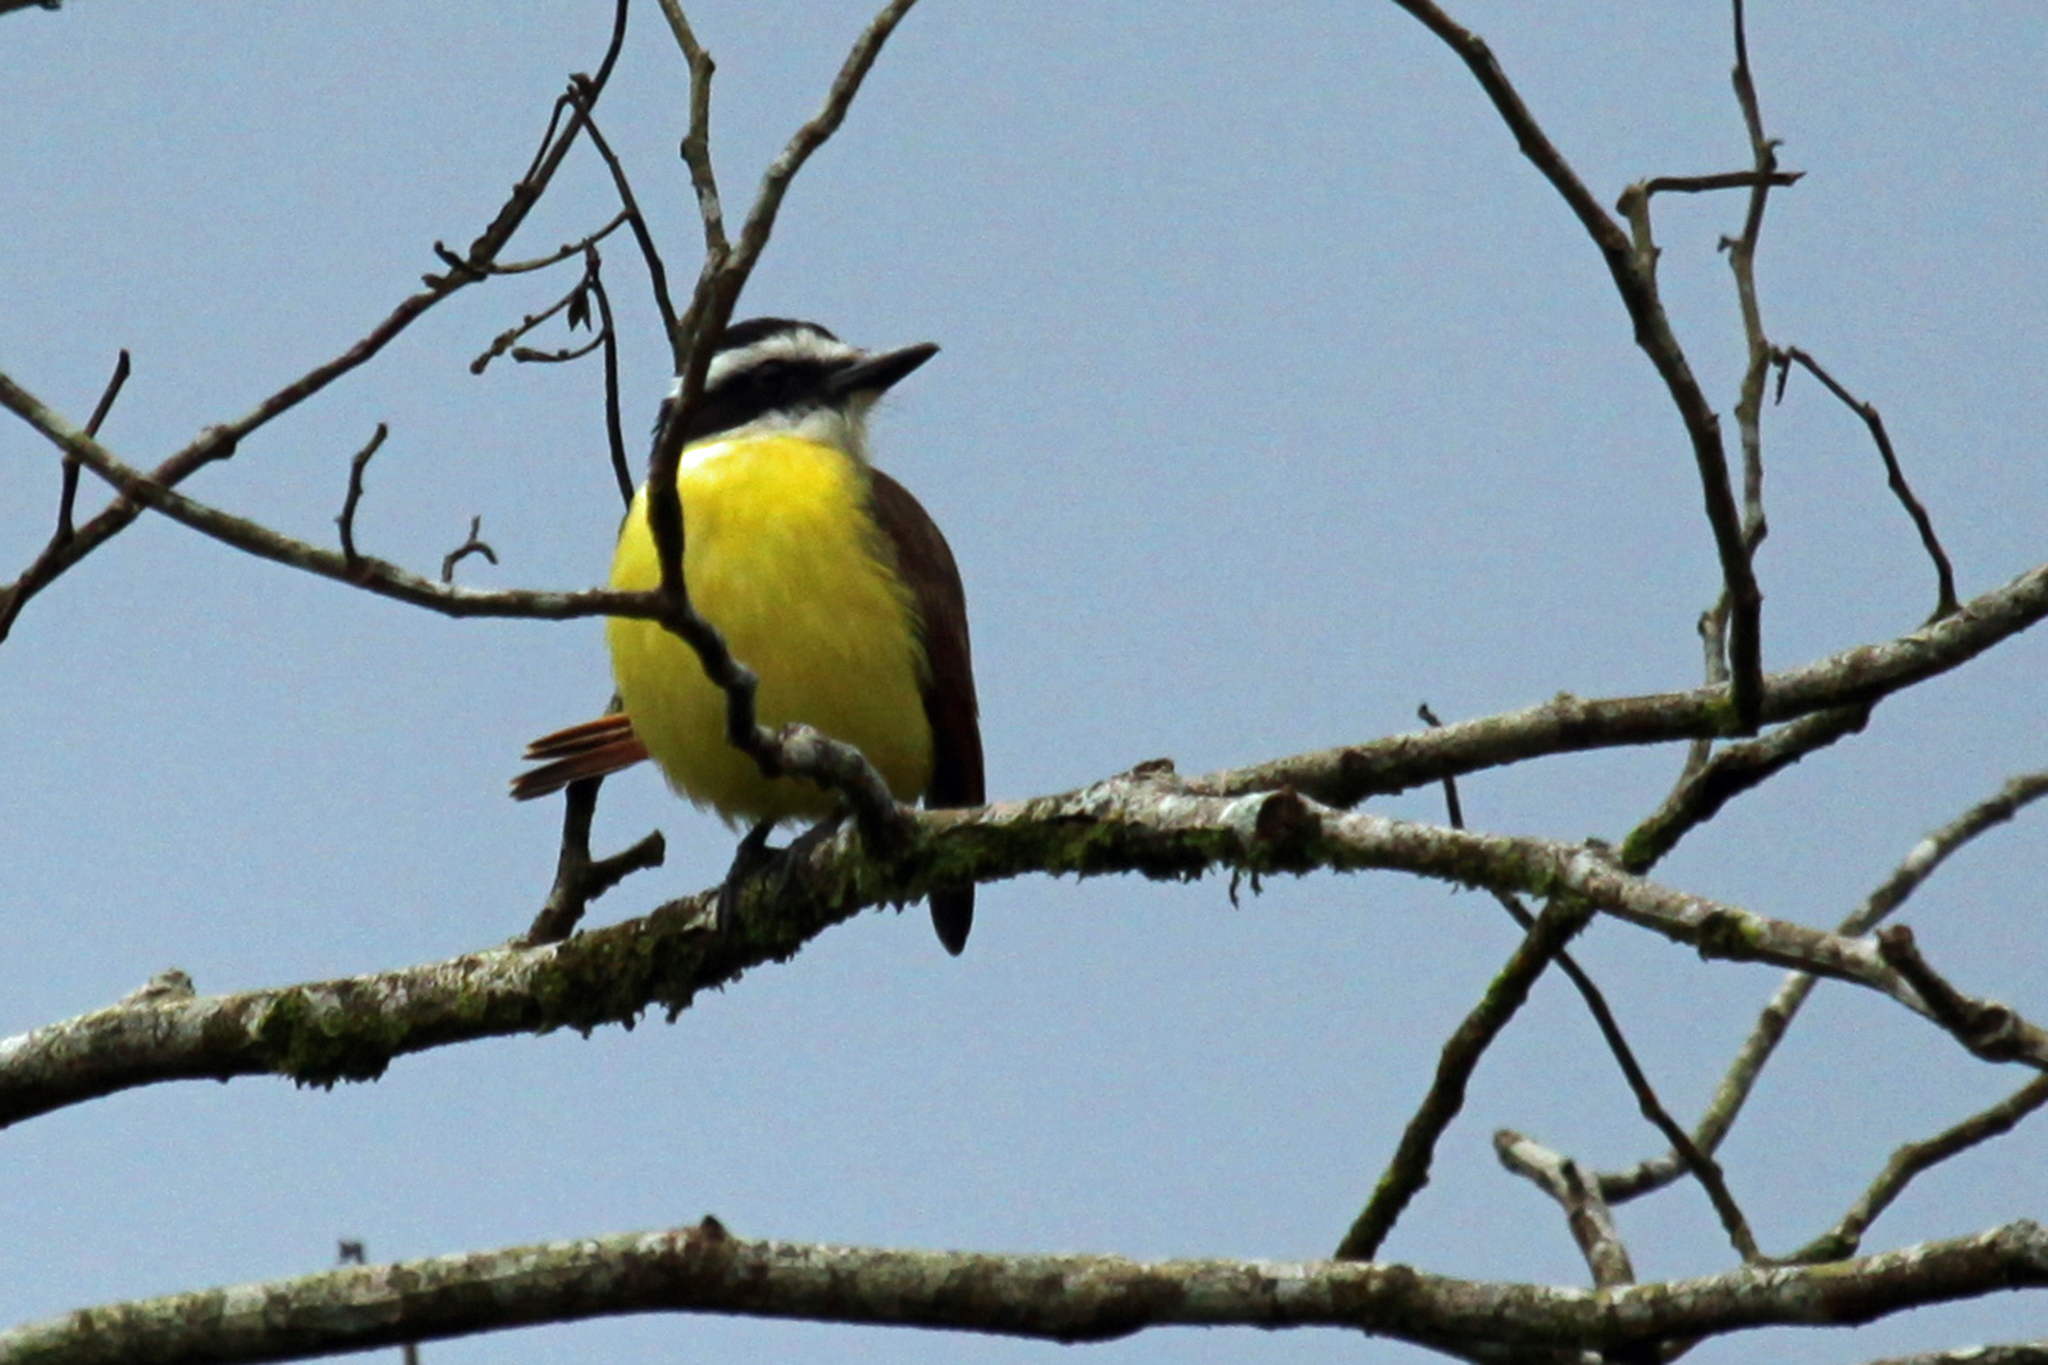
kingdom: Animalia
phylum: Chordata
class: Aves
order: Passeriformes
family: Tyrannidae
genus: Pitangus
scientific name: Pitangus sulphuratus
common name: Great kiskadee
